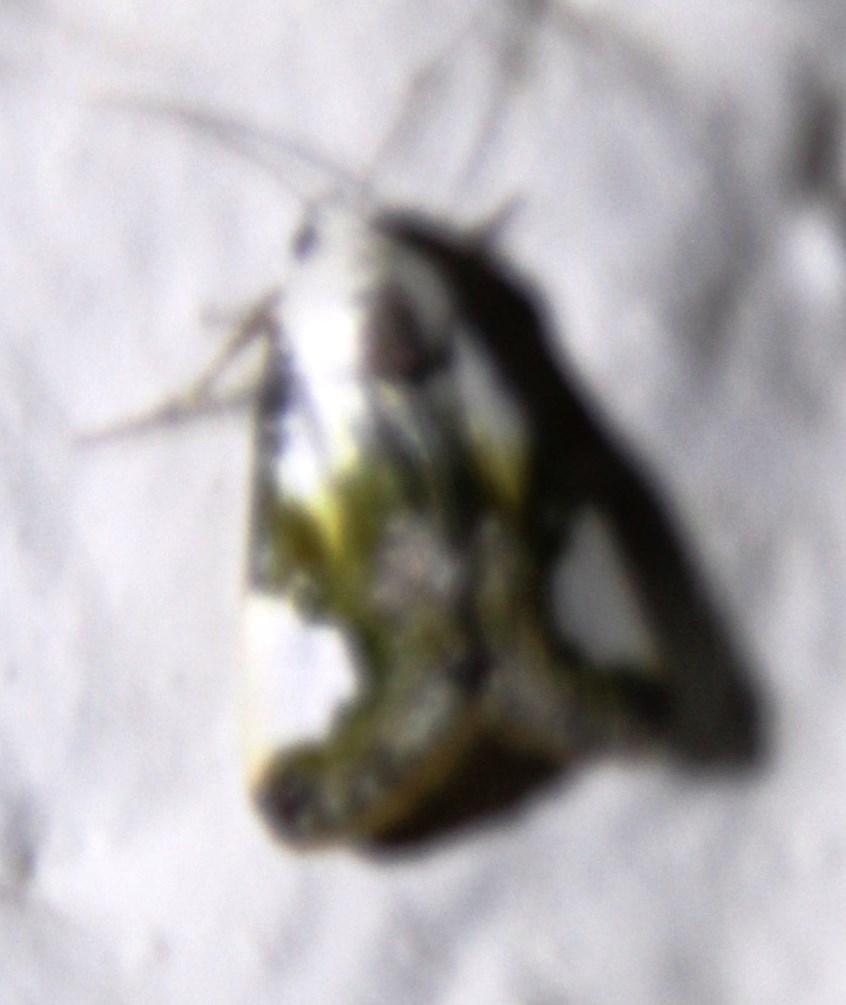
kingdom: Animalia
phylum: Arthropoda
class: Insecta
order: Lepidoptera
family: Noctuidae
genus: Acontia
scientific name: Acontia margaritata
